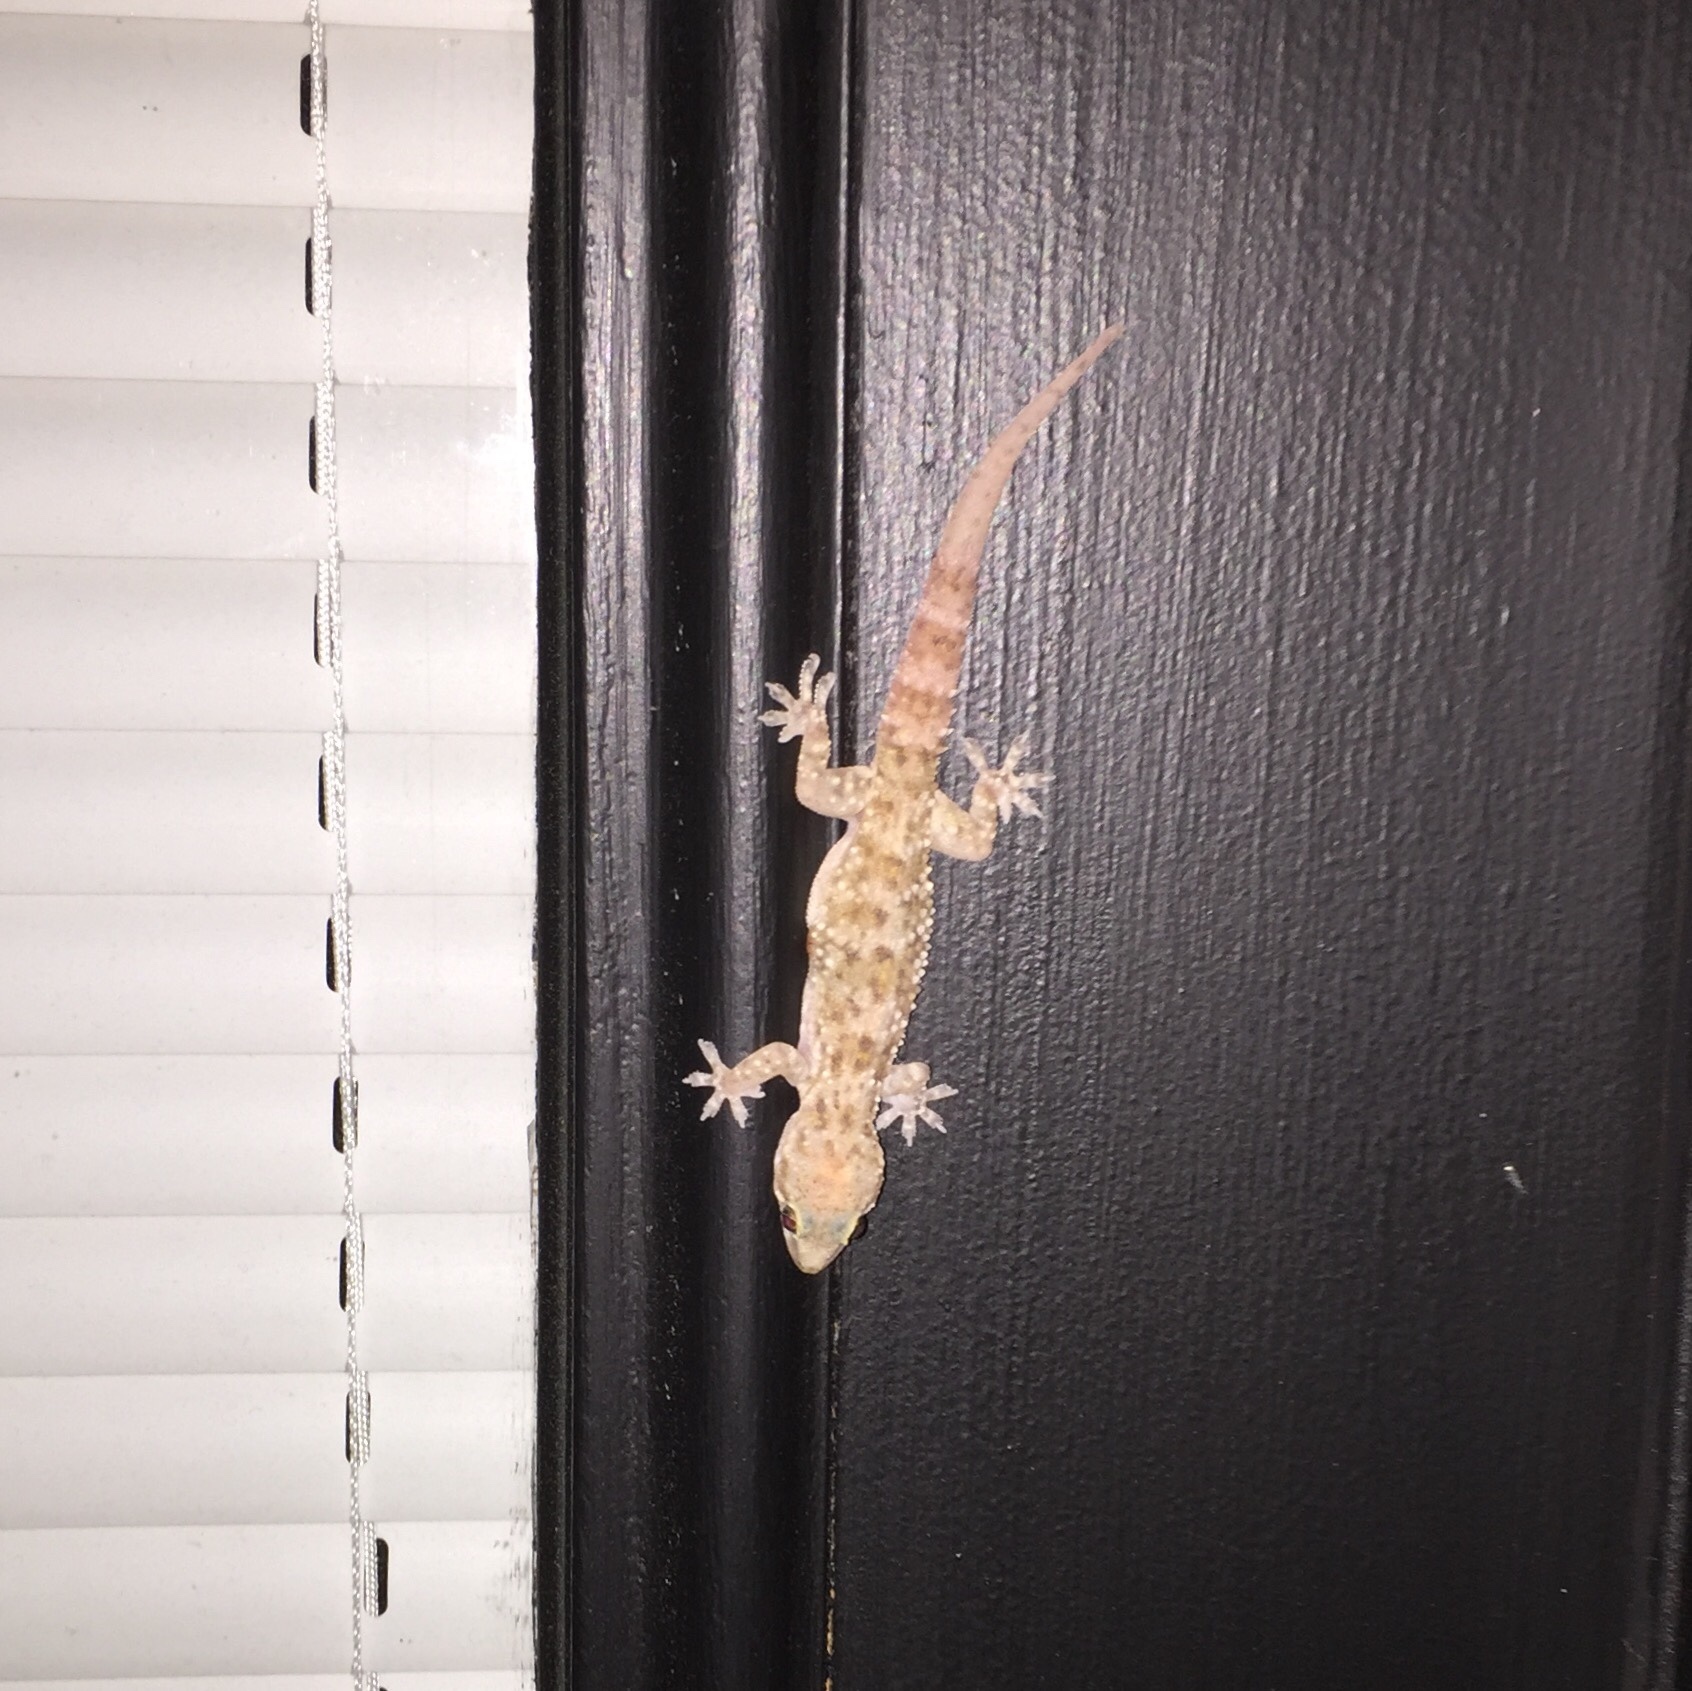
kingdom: Animalia
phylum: Chordata
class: Squamata
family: Gekkonidae
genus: Hemidactylus
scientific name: Hemidactylus turcicus
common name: Turkish gecko
